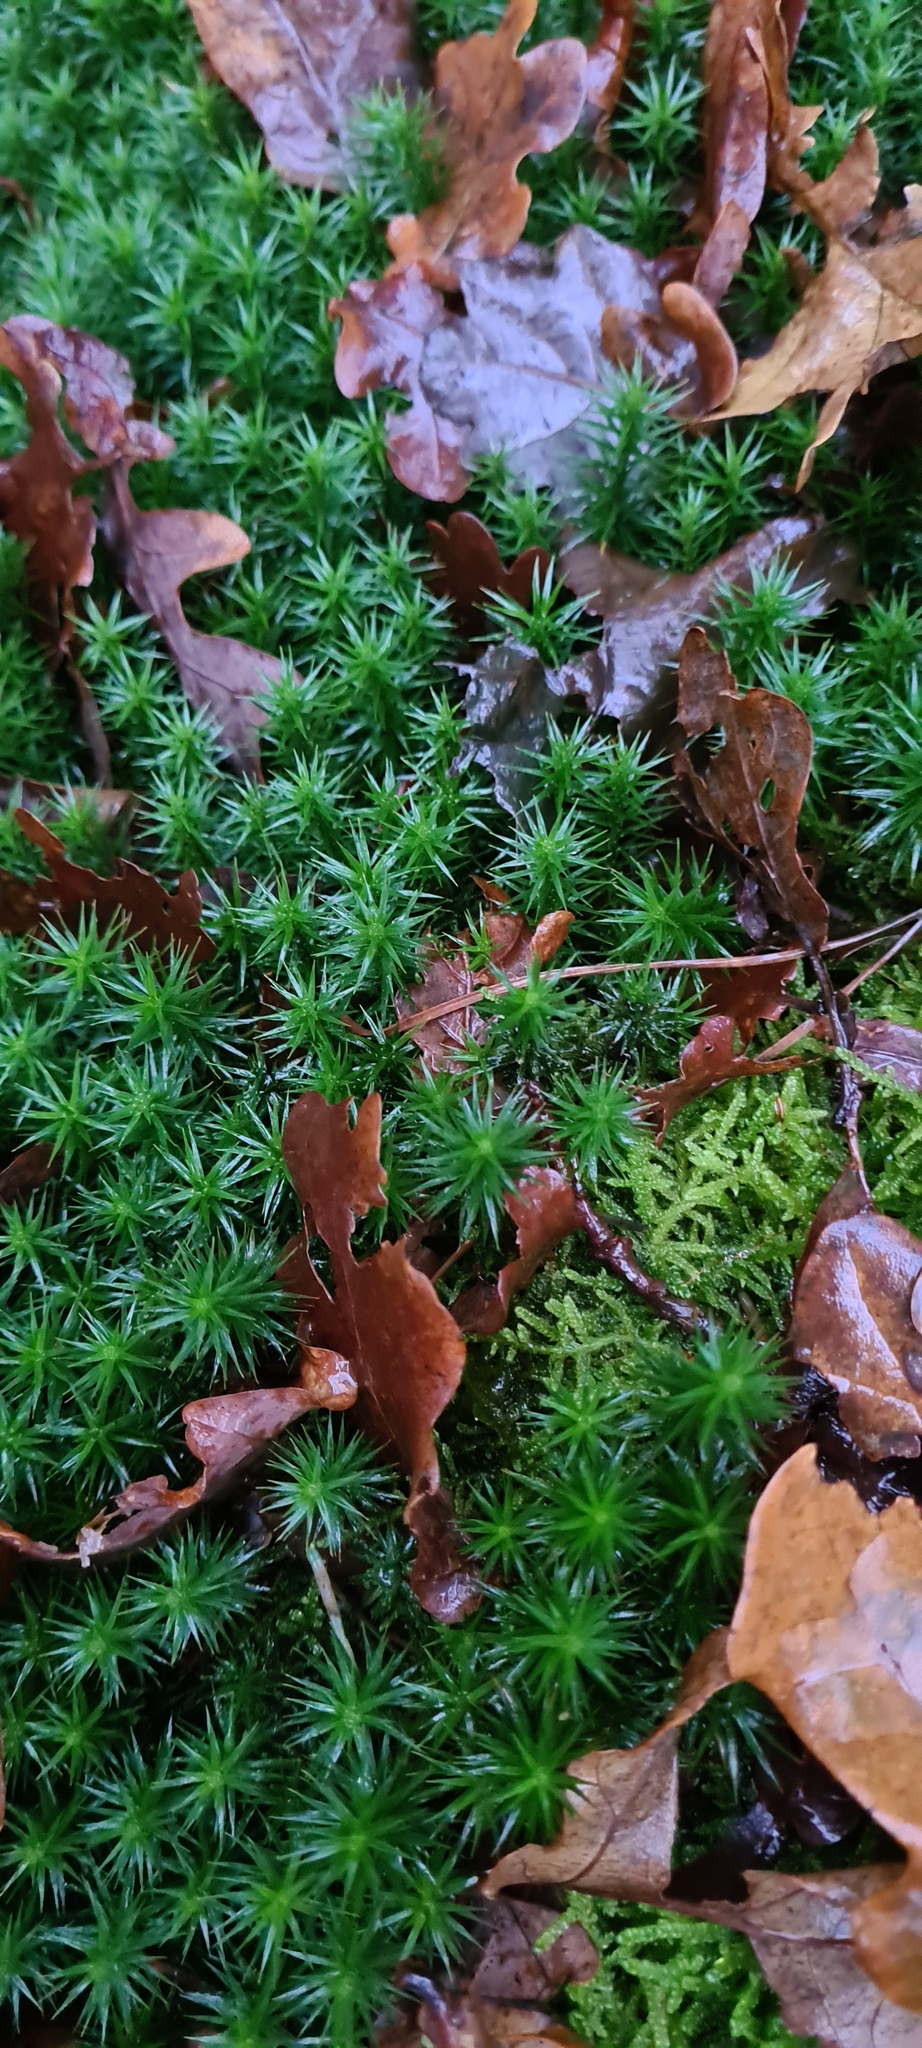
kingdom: Plantae
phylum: Bryophyta
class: Polytrichopsida
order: Polytrichales
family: Polytrichaceae
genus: Polytrichum
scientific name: Polytrichum formosum
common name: Bank haircap moss
